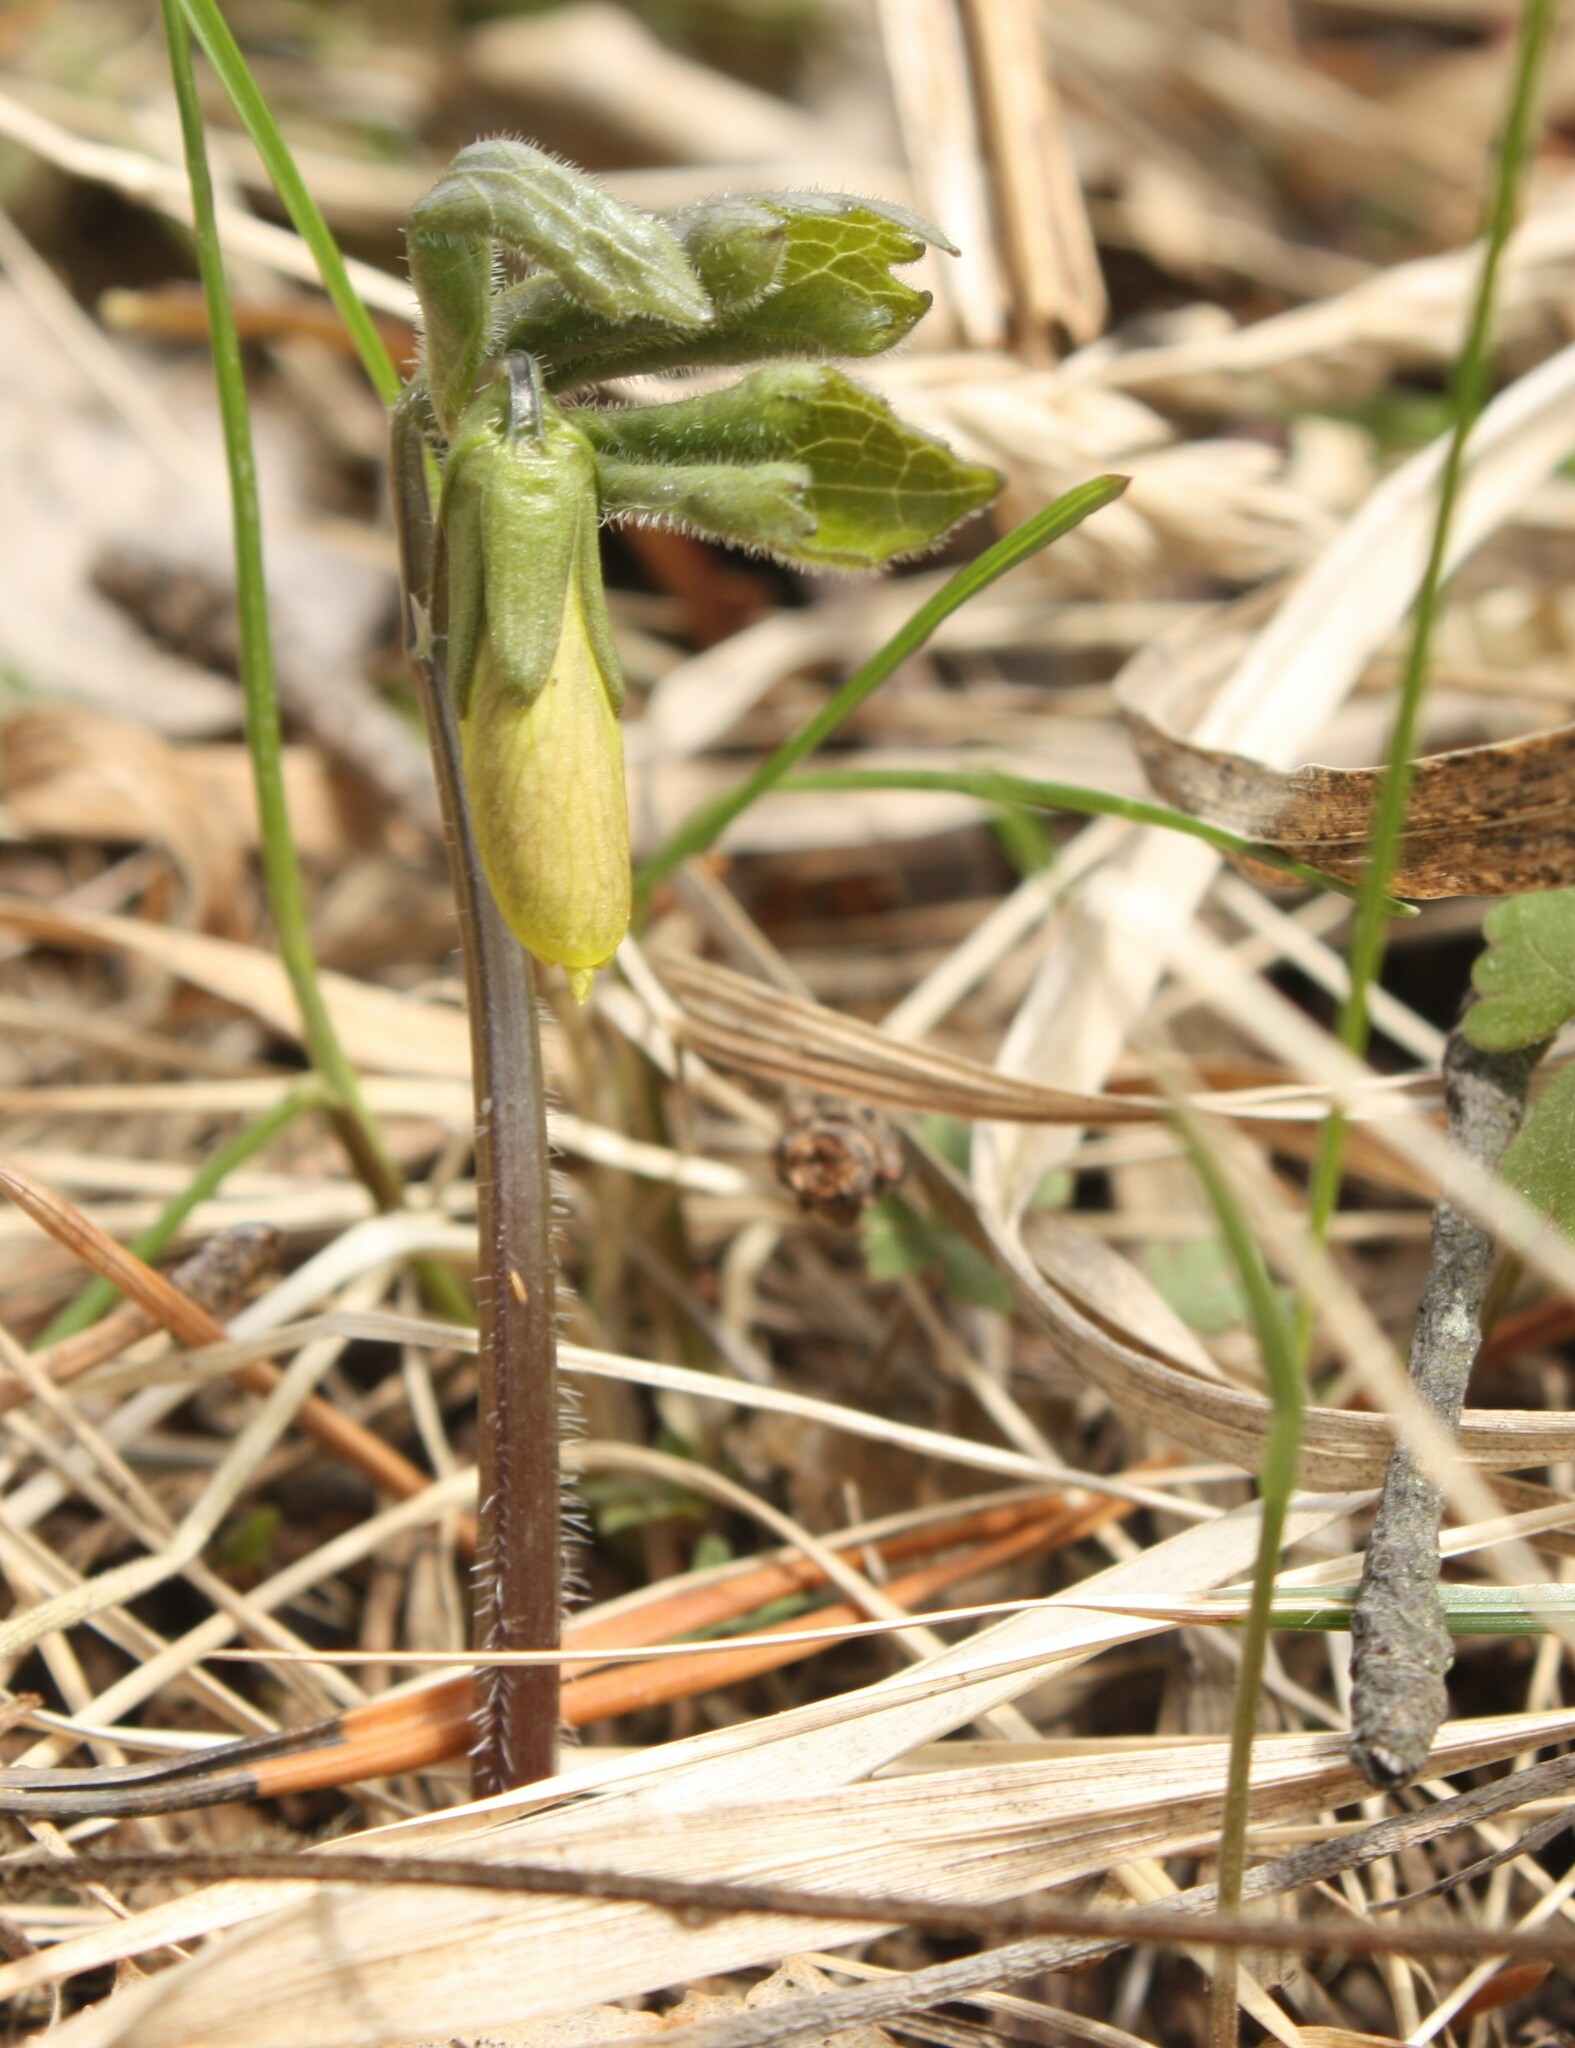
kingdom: Plantae
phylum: Tracheophyta
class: Magnoliopsida
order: Malpighiales
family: Violaceae
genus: Viola
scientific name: Viola uniflora
